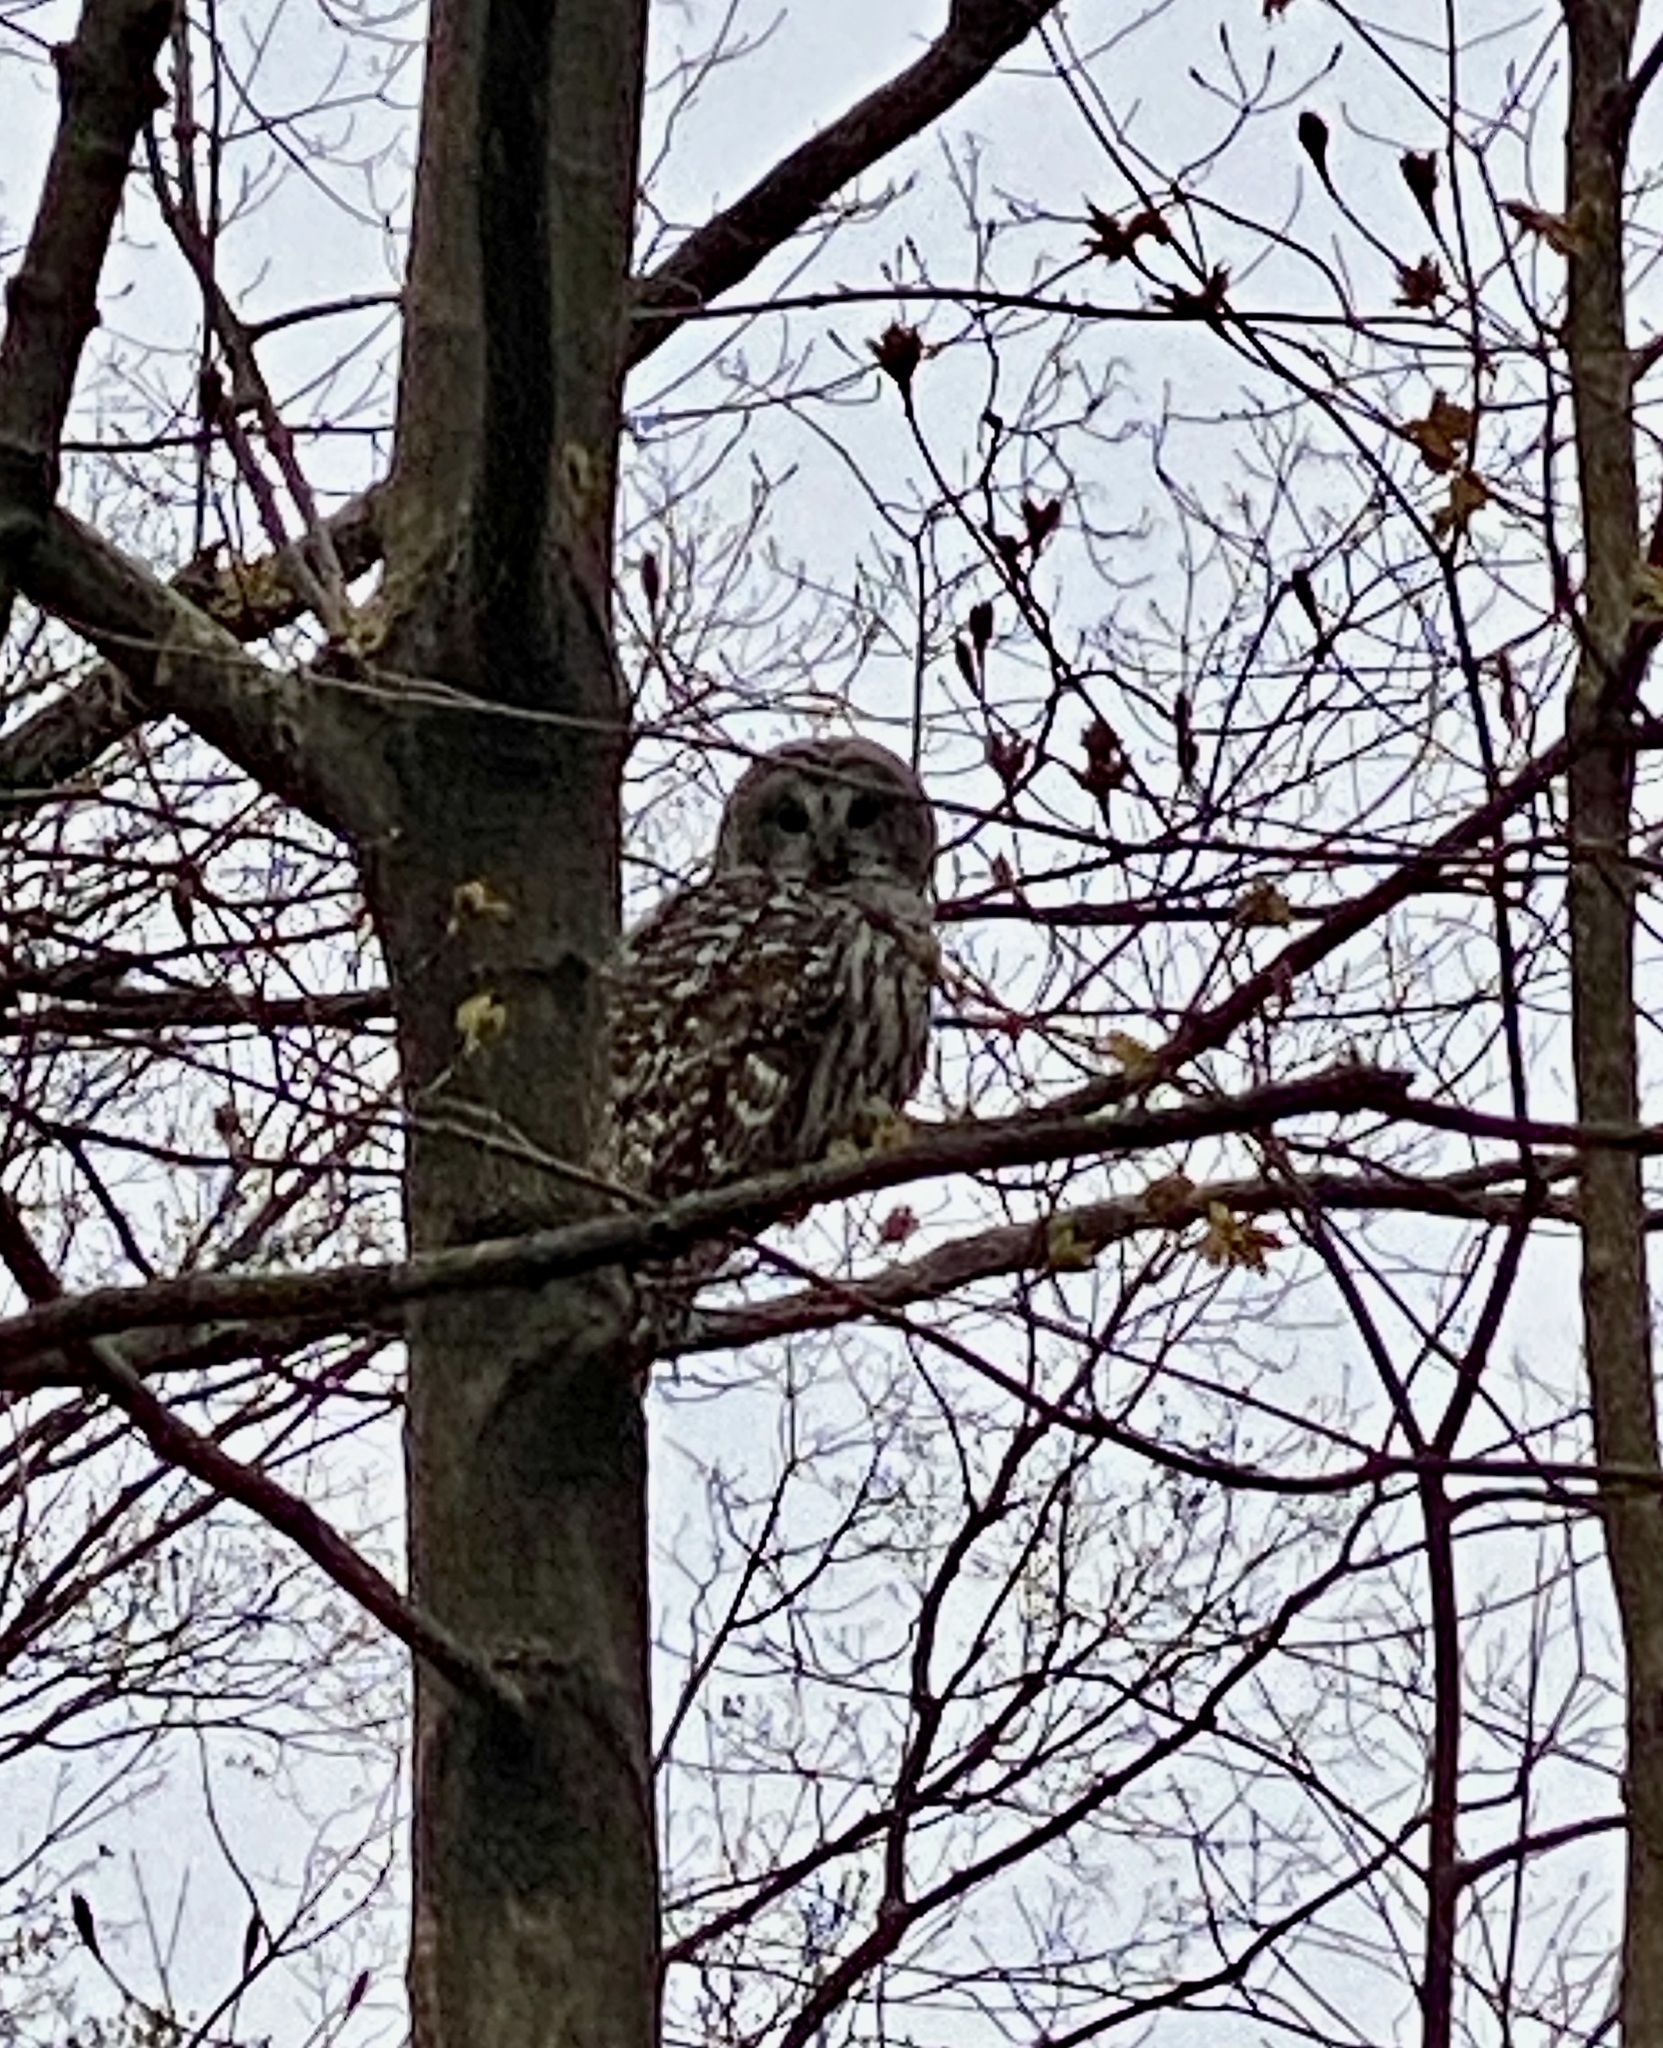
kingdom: Animalia
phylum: Chordata
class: Aves
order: Strigiformes
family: Strigidae
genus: Strix
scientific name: Strix varia
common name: Barred owl
